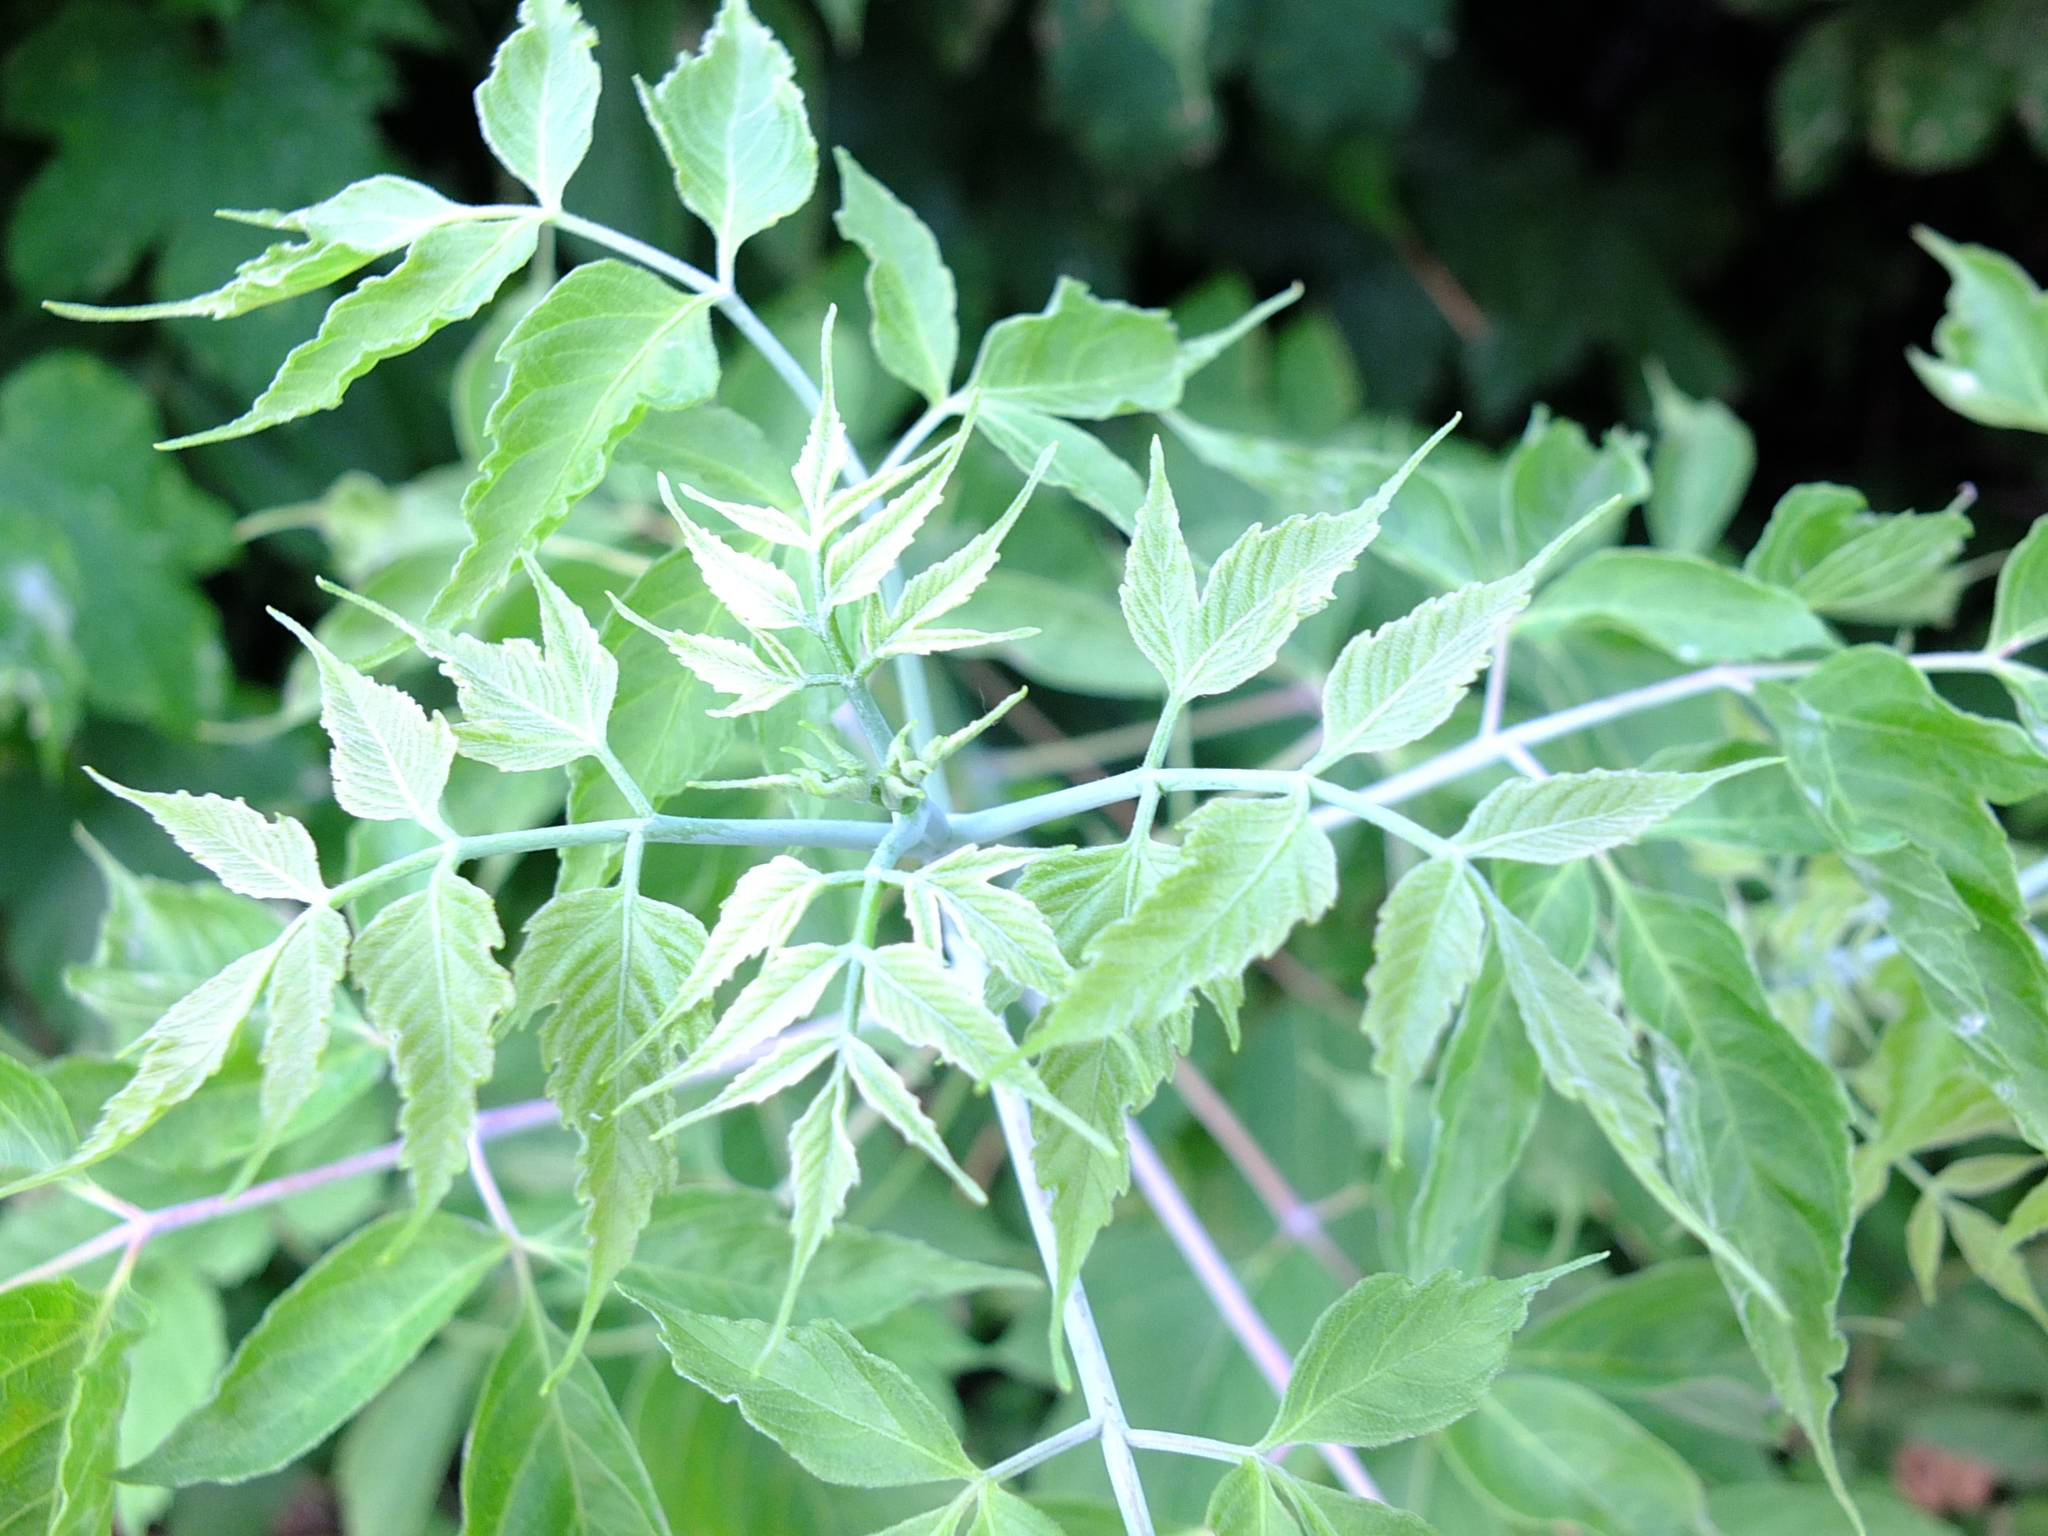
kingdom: Plantae
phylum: Tracheophyta
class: Magnoliopsida
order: Sapindales
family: Sapindaceae
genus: Acer
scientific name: Acer negundo
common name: Ashleaf maple
